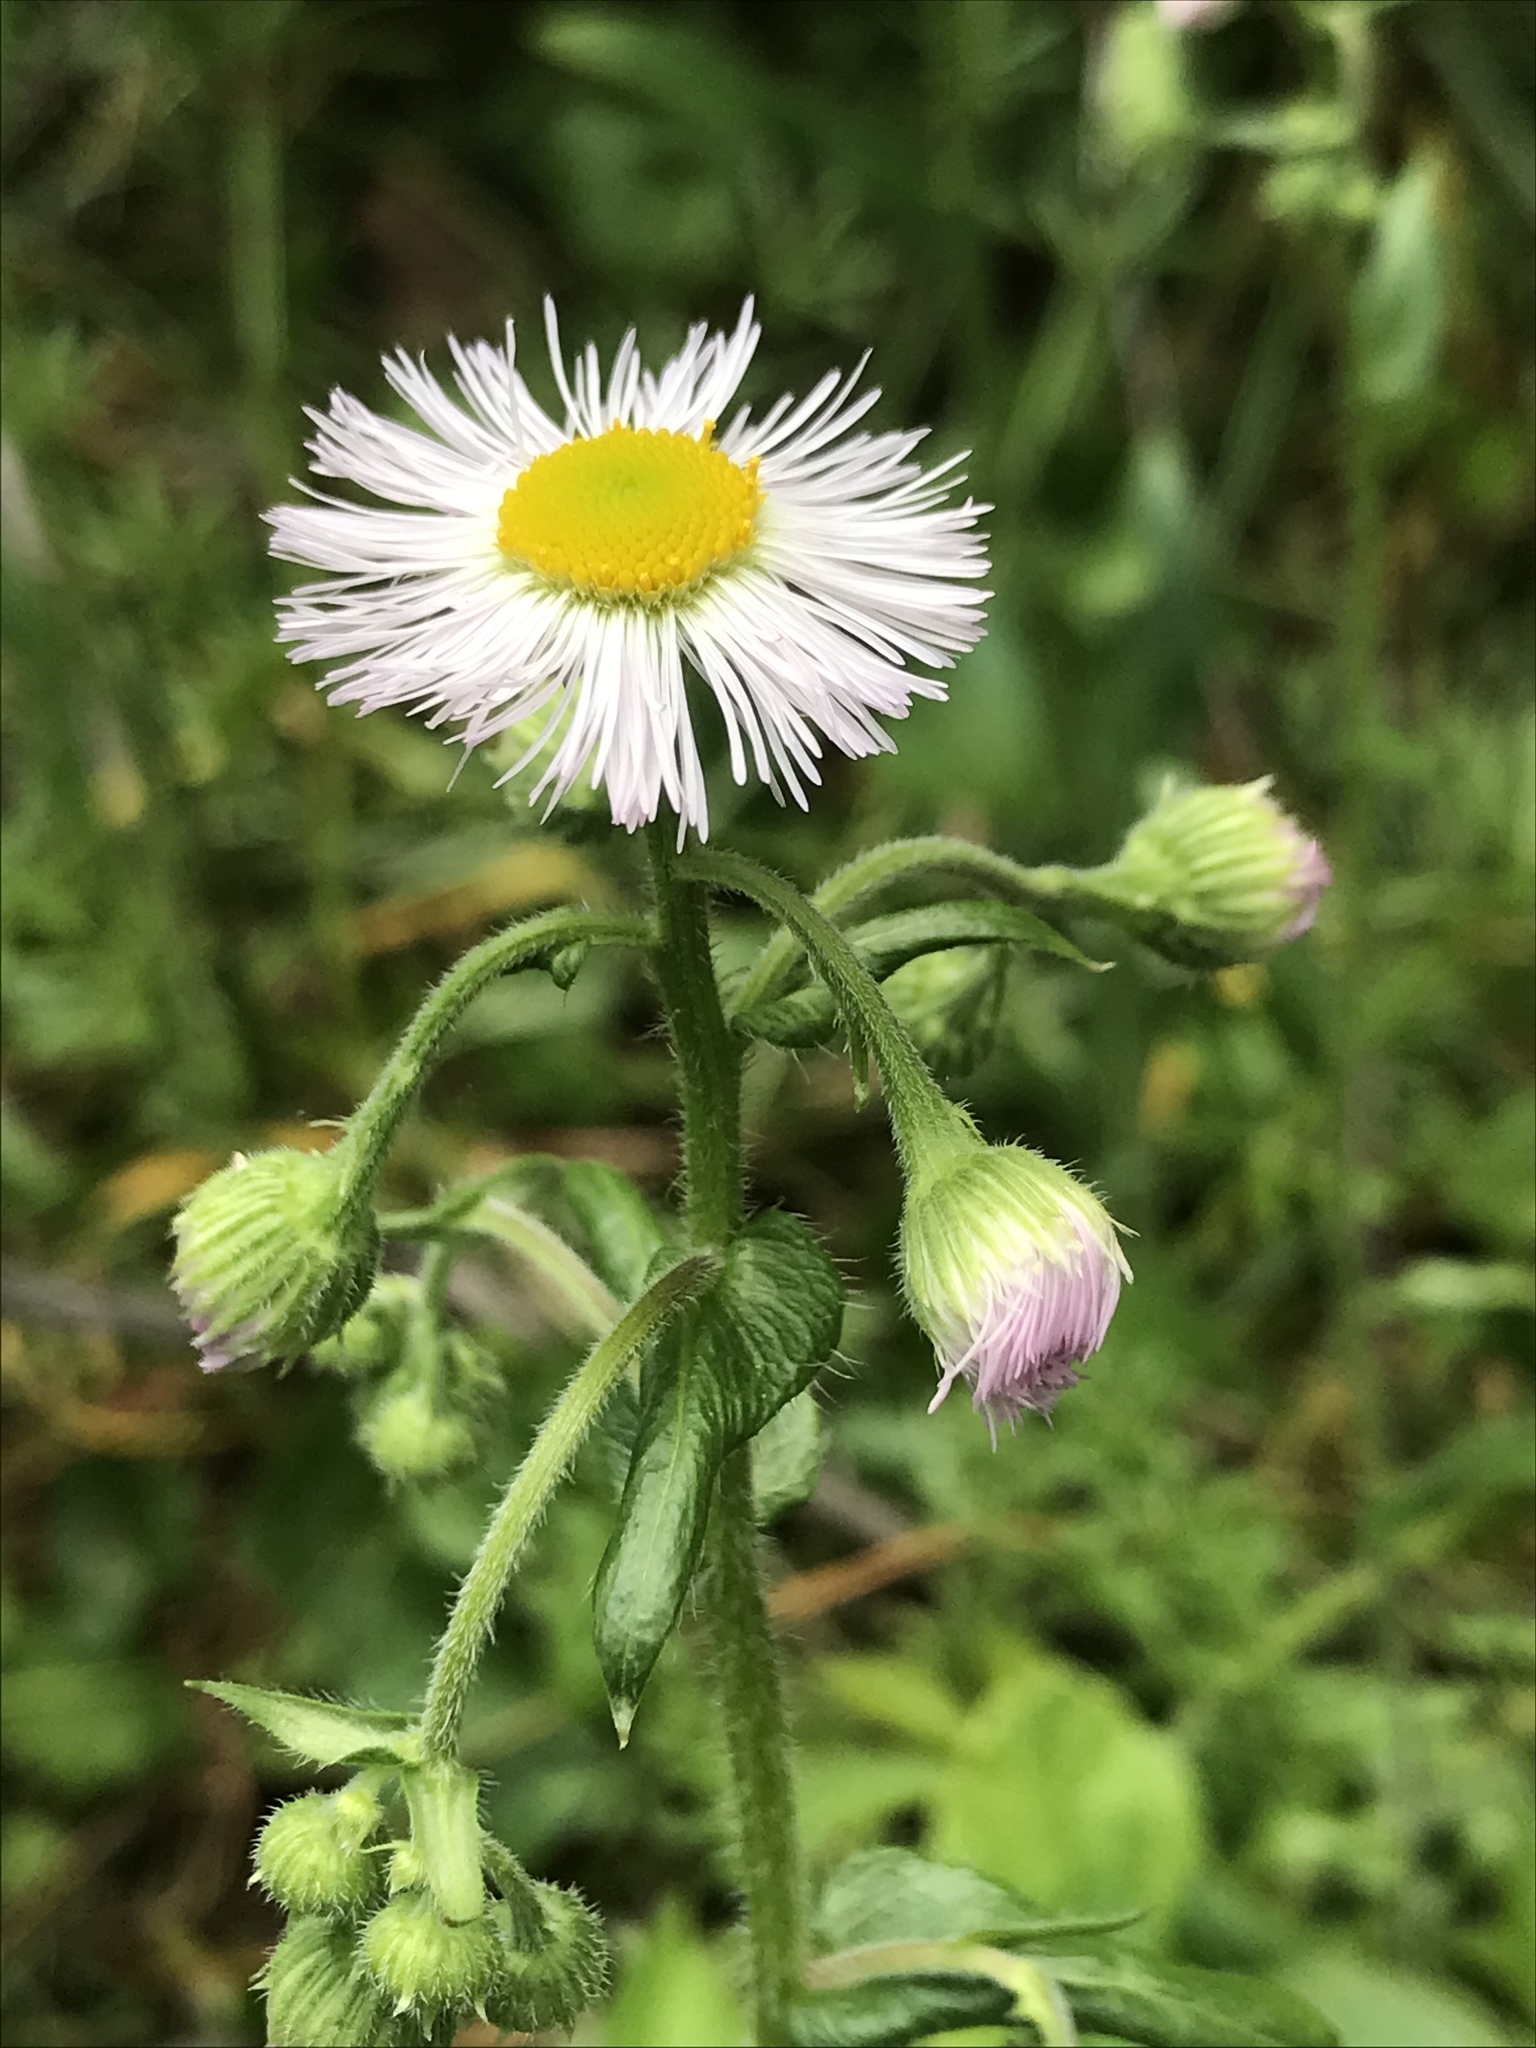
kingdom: Plantae
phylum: Tracheophyta
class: Magnoliopsida
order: Asterales
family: Asteraceae
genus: Erigeron
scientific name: Erigeron philadelphicus
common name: Robin's-plantain
